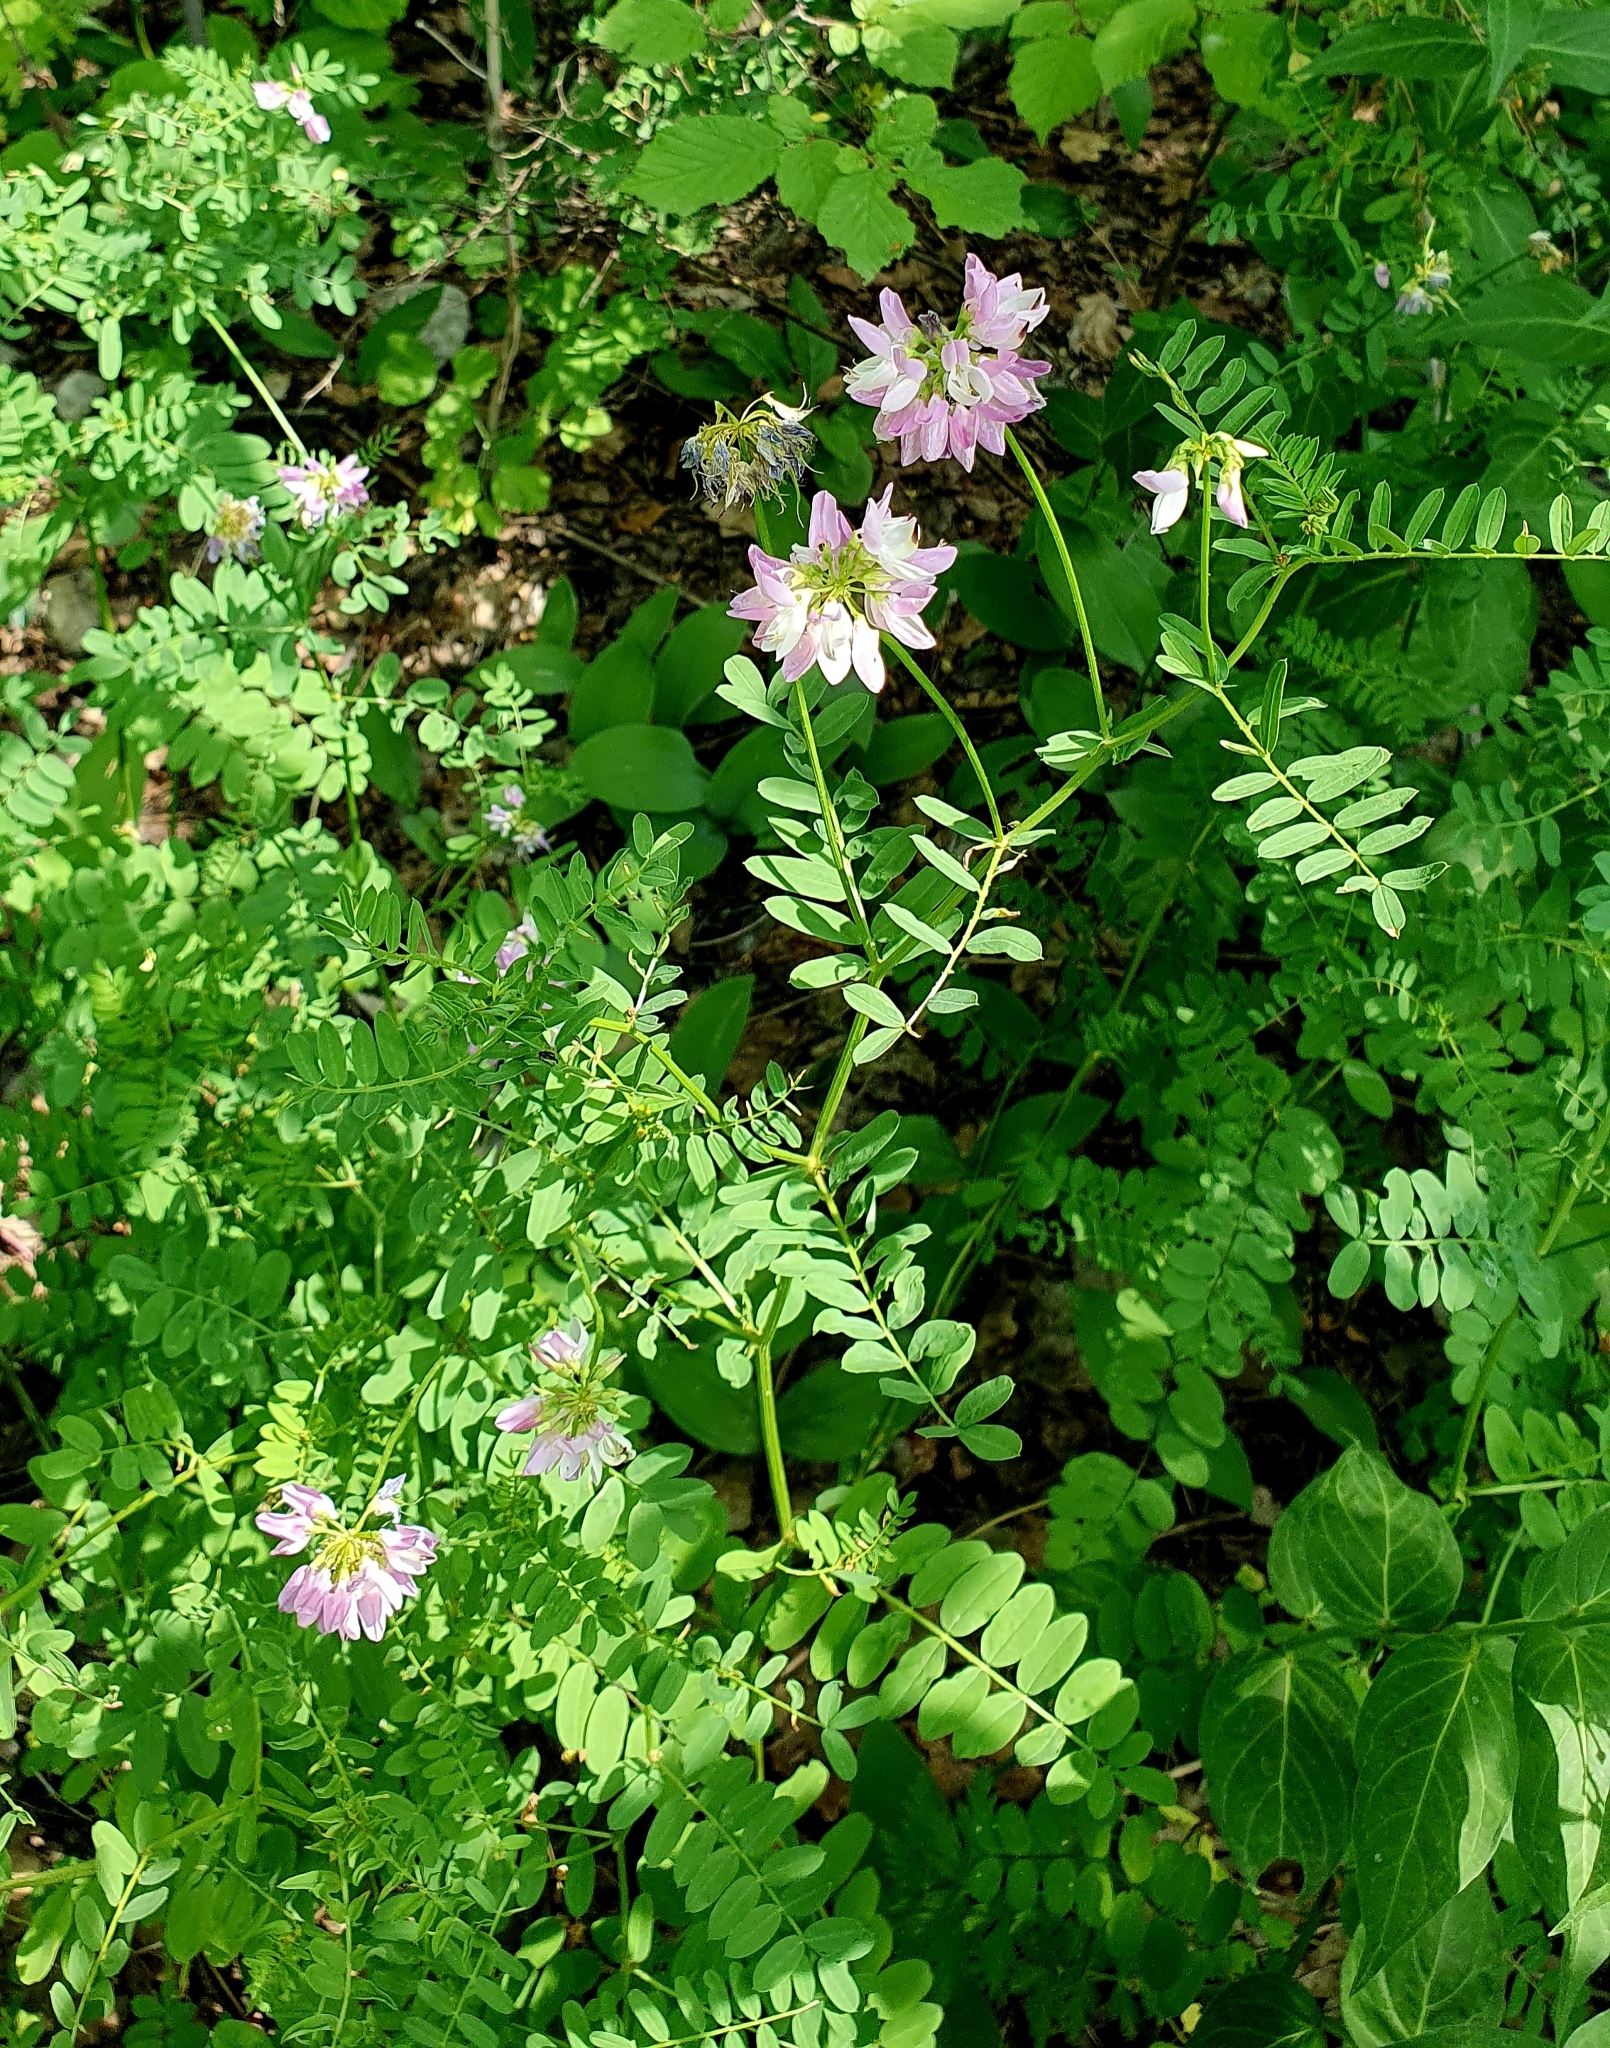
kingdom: Plantae
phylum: Tracheophyta
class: Magnoliopsida
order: Fabales
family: Fabaceae
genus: Coronilla
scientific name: Coronilla varia
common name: Crownvetch
